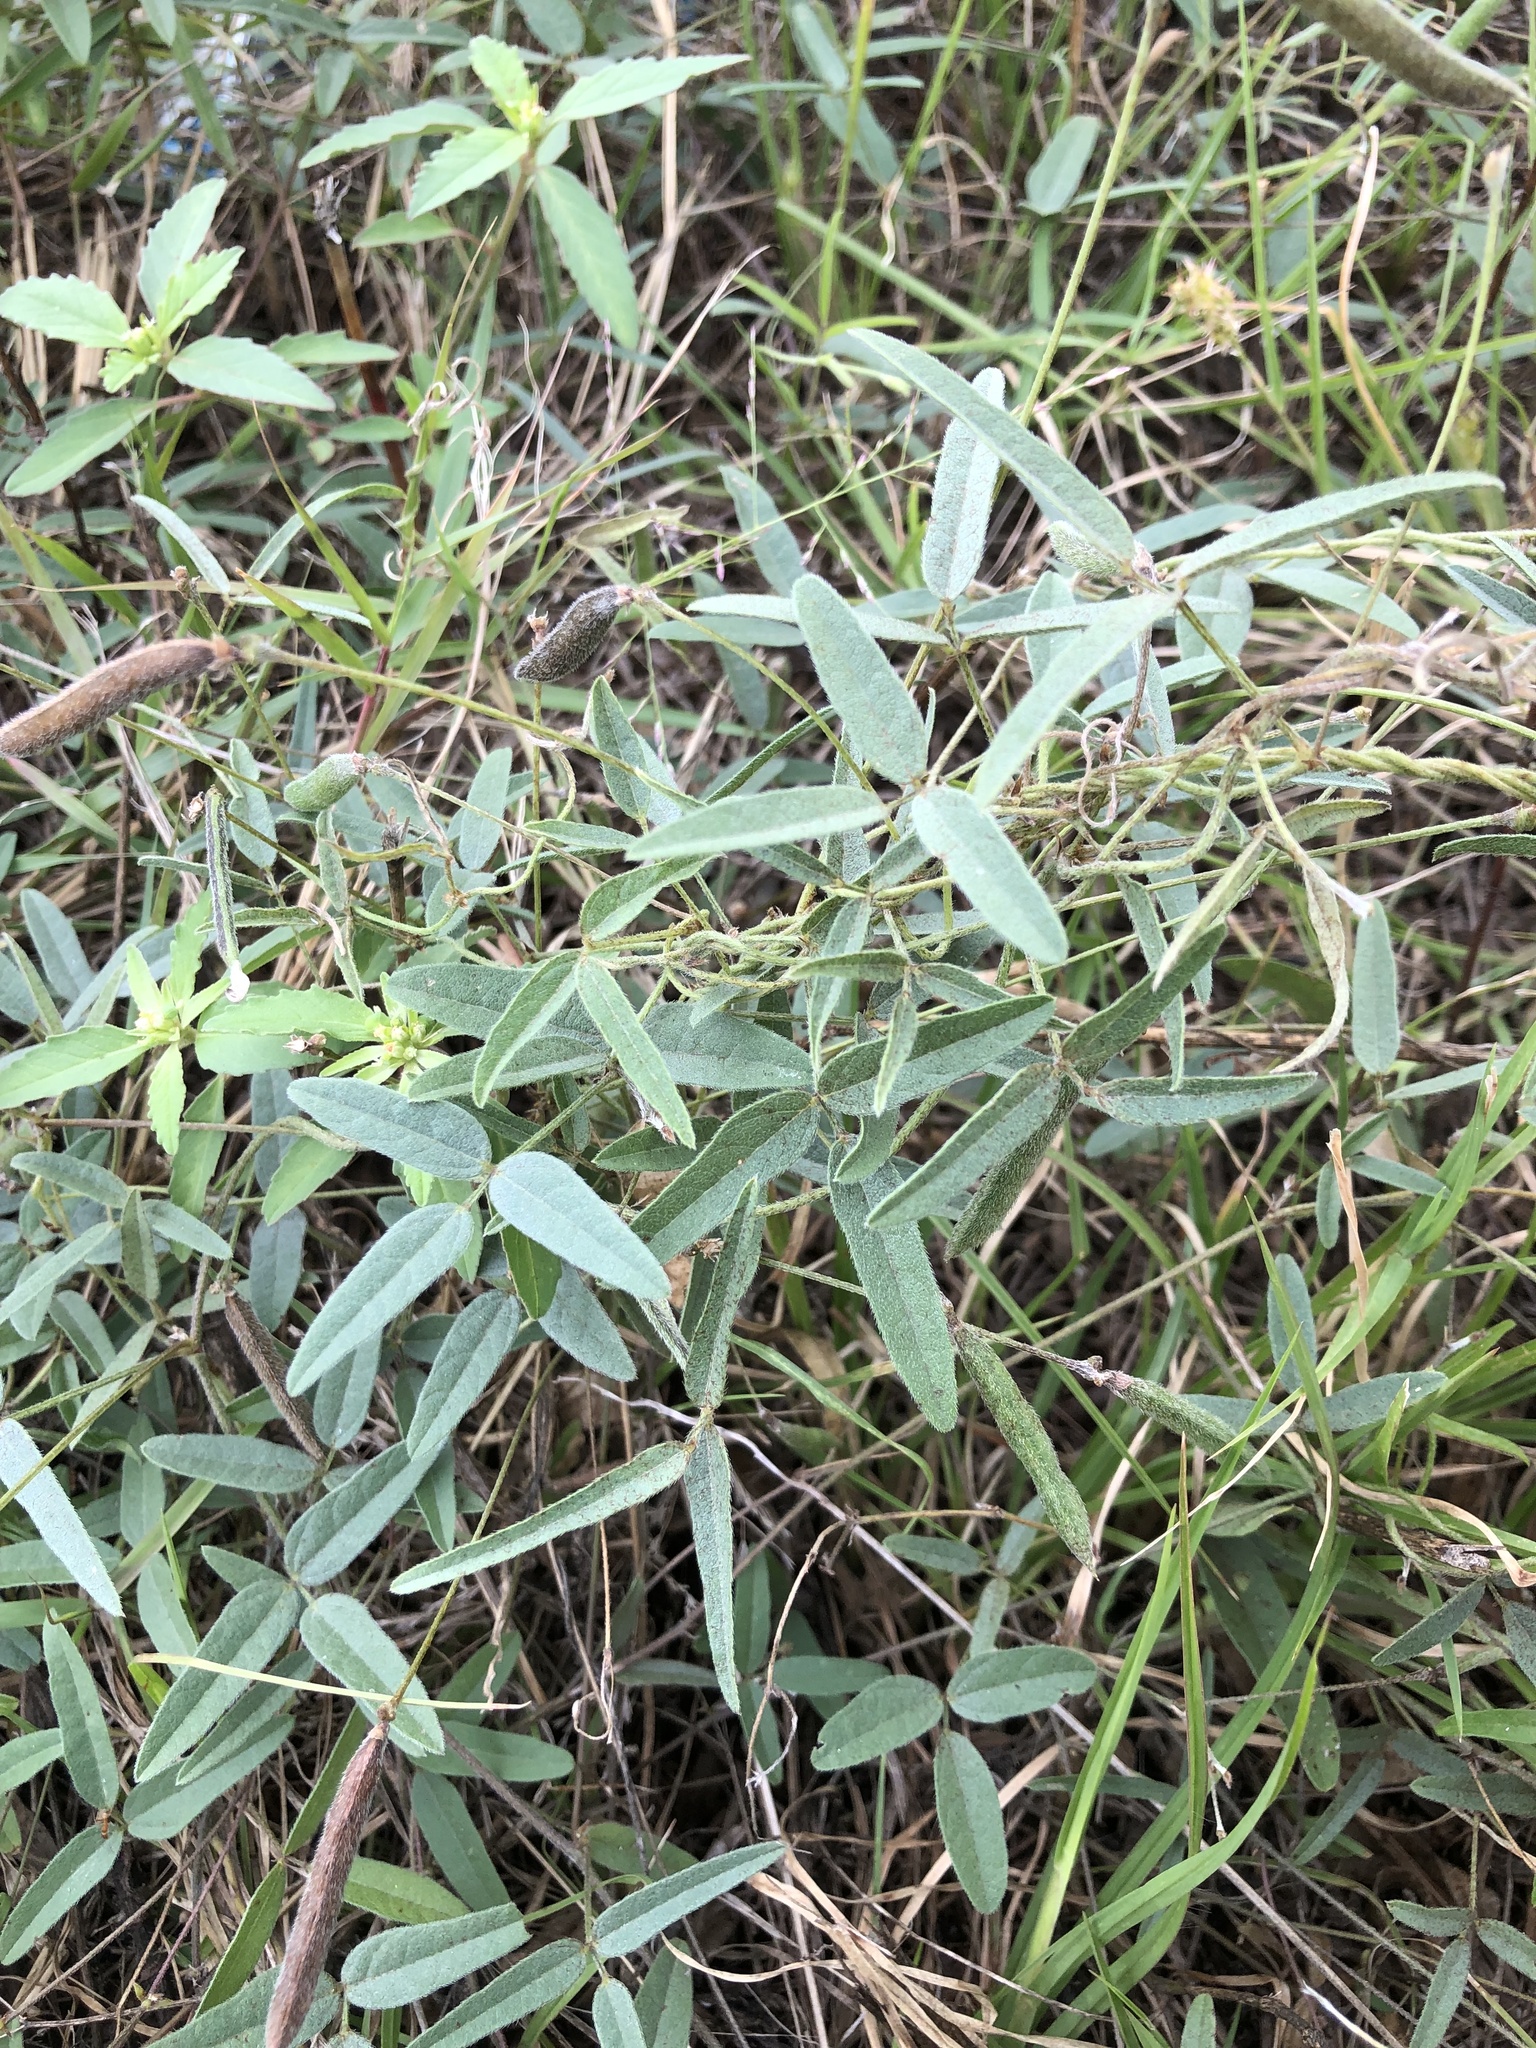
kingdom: Plantae
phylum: Tracheophyta
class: Magnoliopsida
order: Fabales
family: Fabaceae
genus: Strophostyles
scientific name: Strophostyles leiosperma
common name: Smooth-seed wild bean
